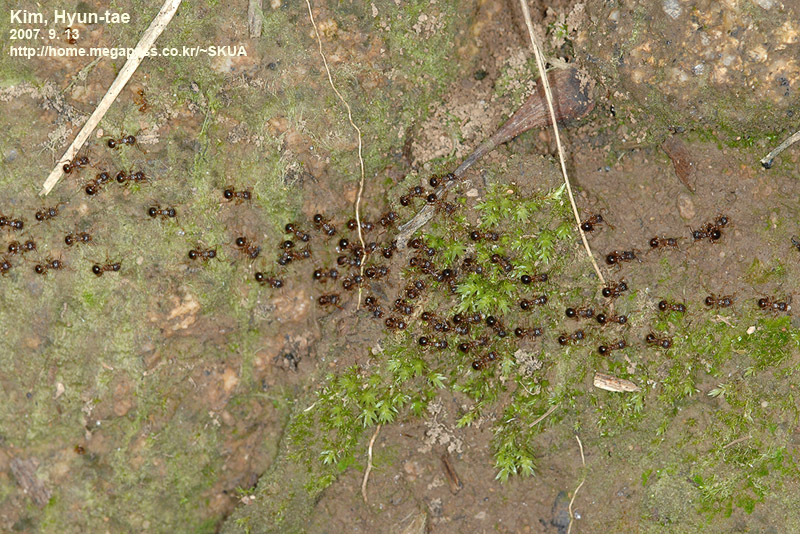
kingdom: Animalia
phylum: Arthropoda
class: Insecta
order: Hymenoptera
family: Formicidae
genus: Pristomyrmex
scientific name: Pristomyrmex punctatus
